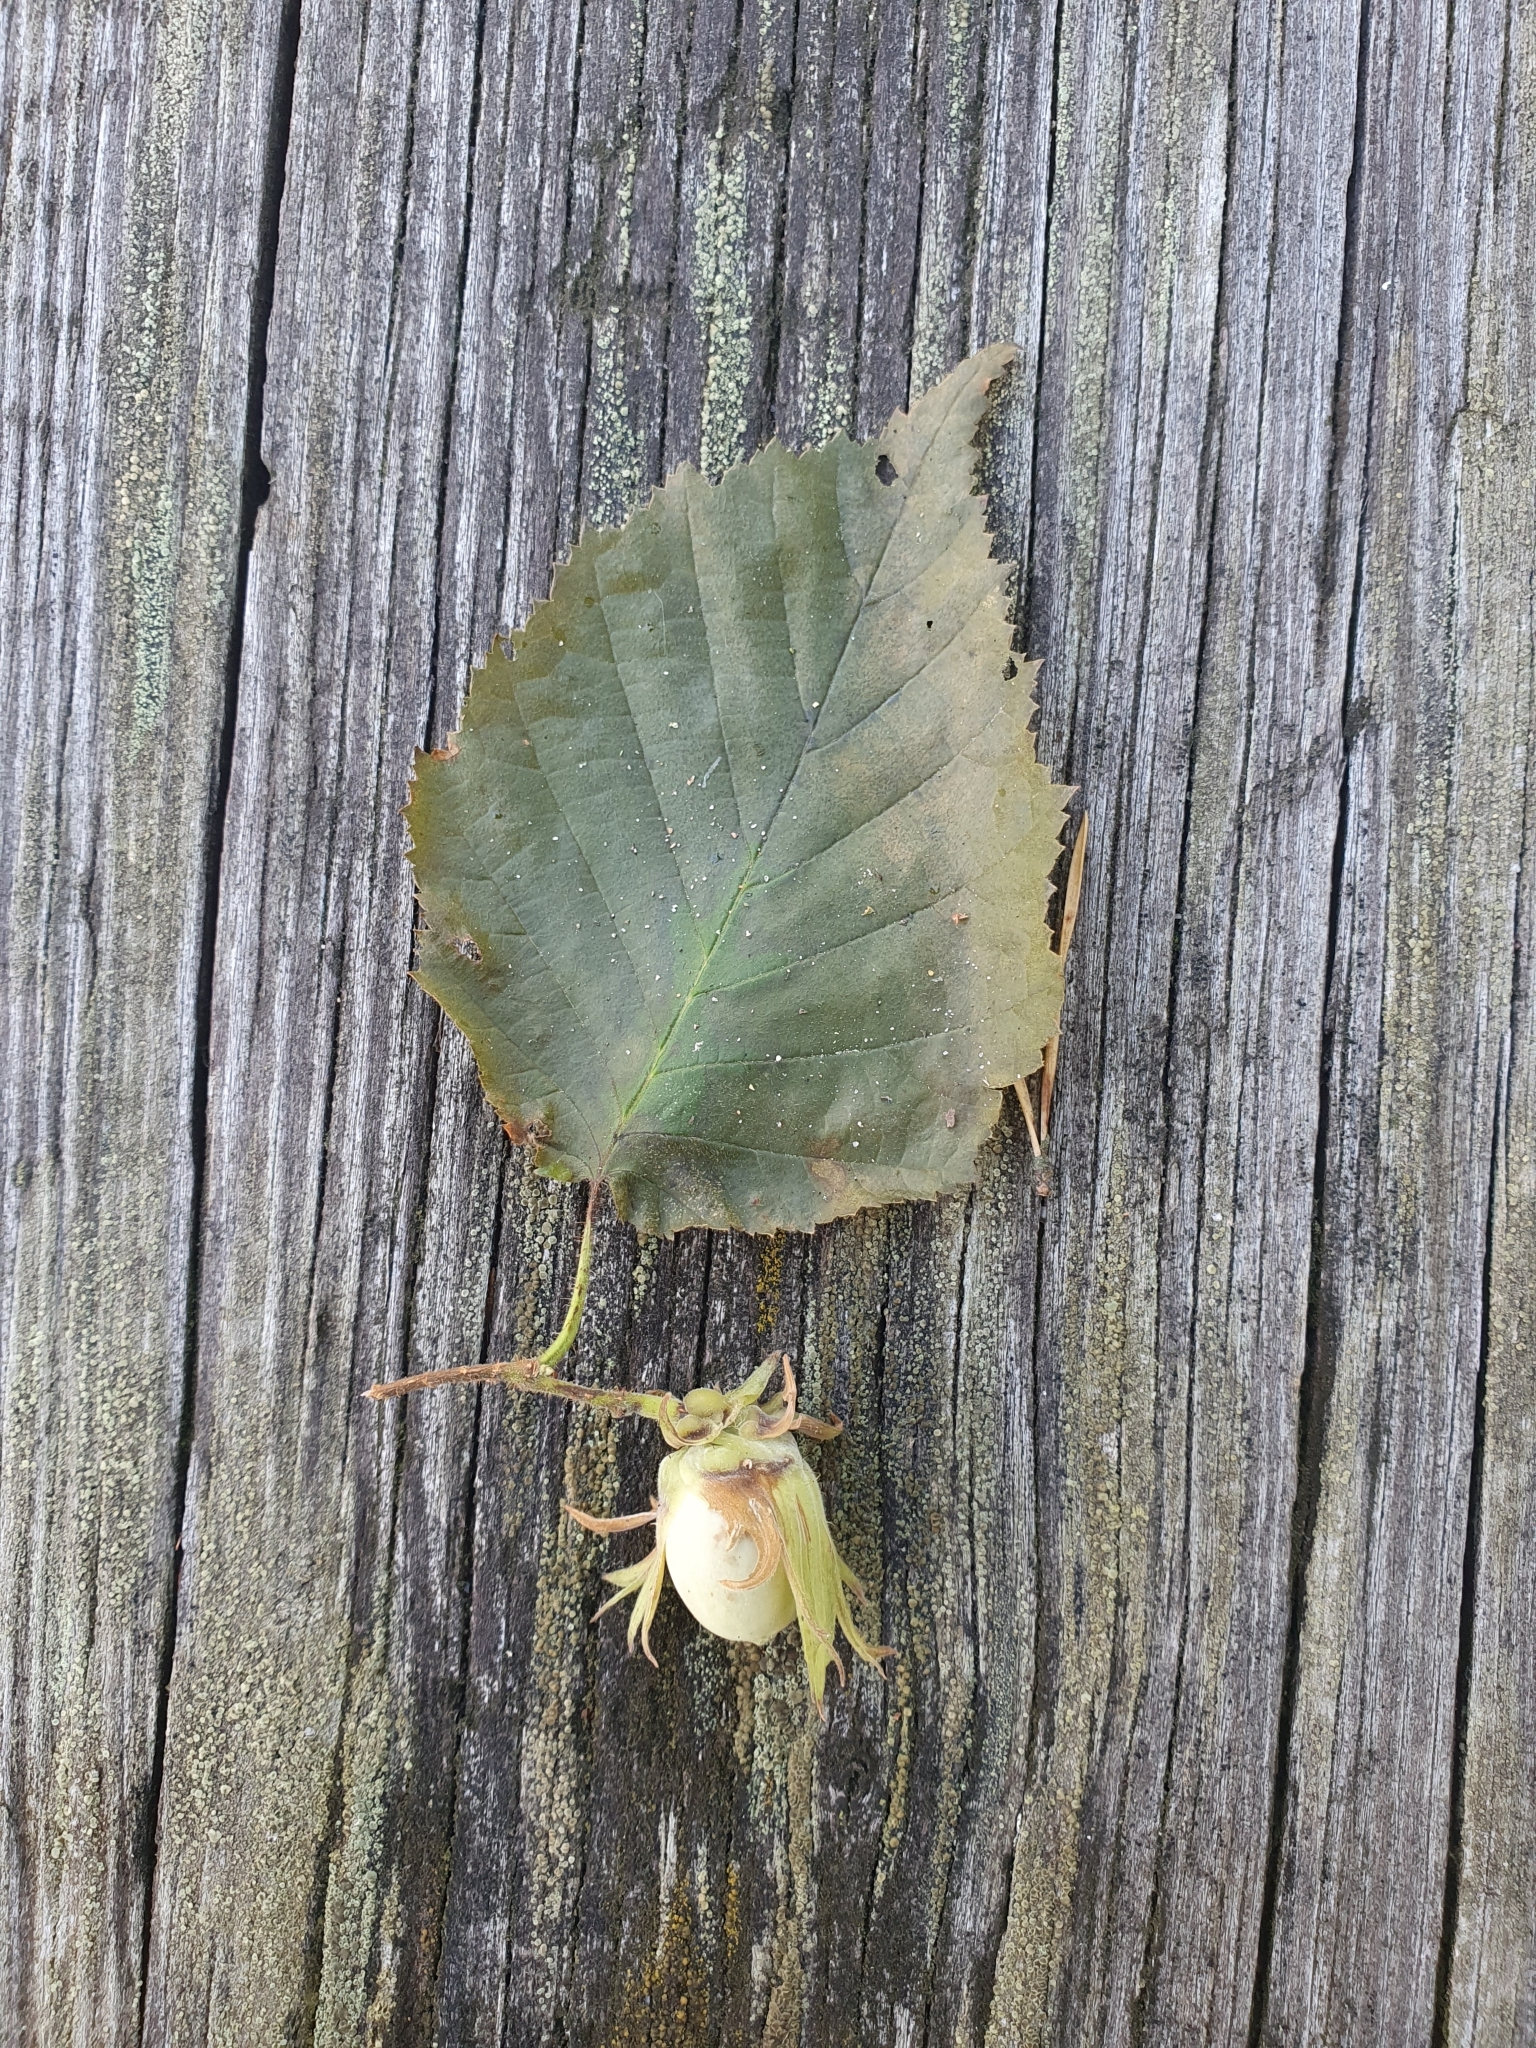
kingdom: Plantae
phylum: Tracheophyta
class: Magnoliopsida
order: Fagales
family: Betulaceae
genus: Corylus
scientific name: Corylus avellana
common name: European hazel
